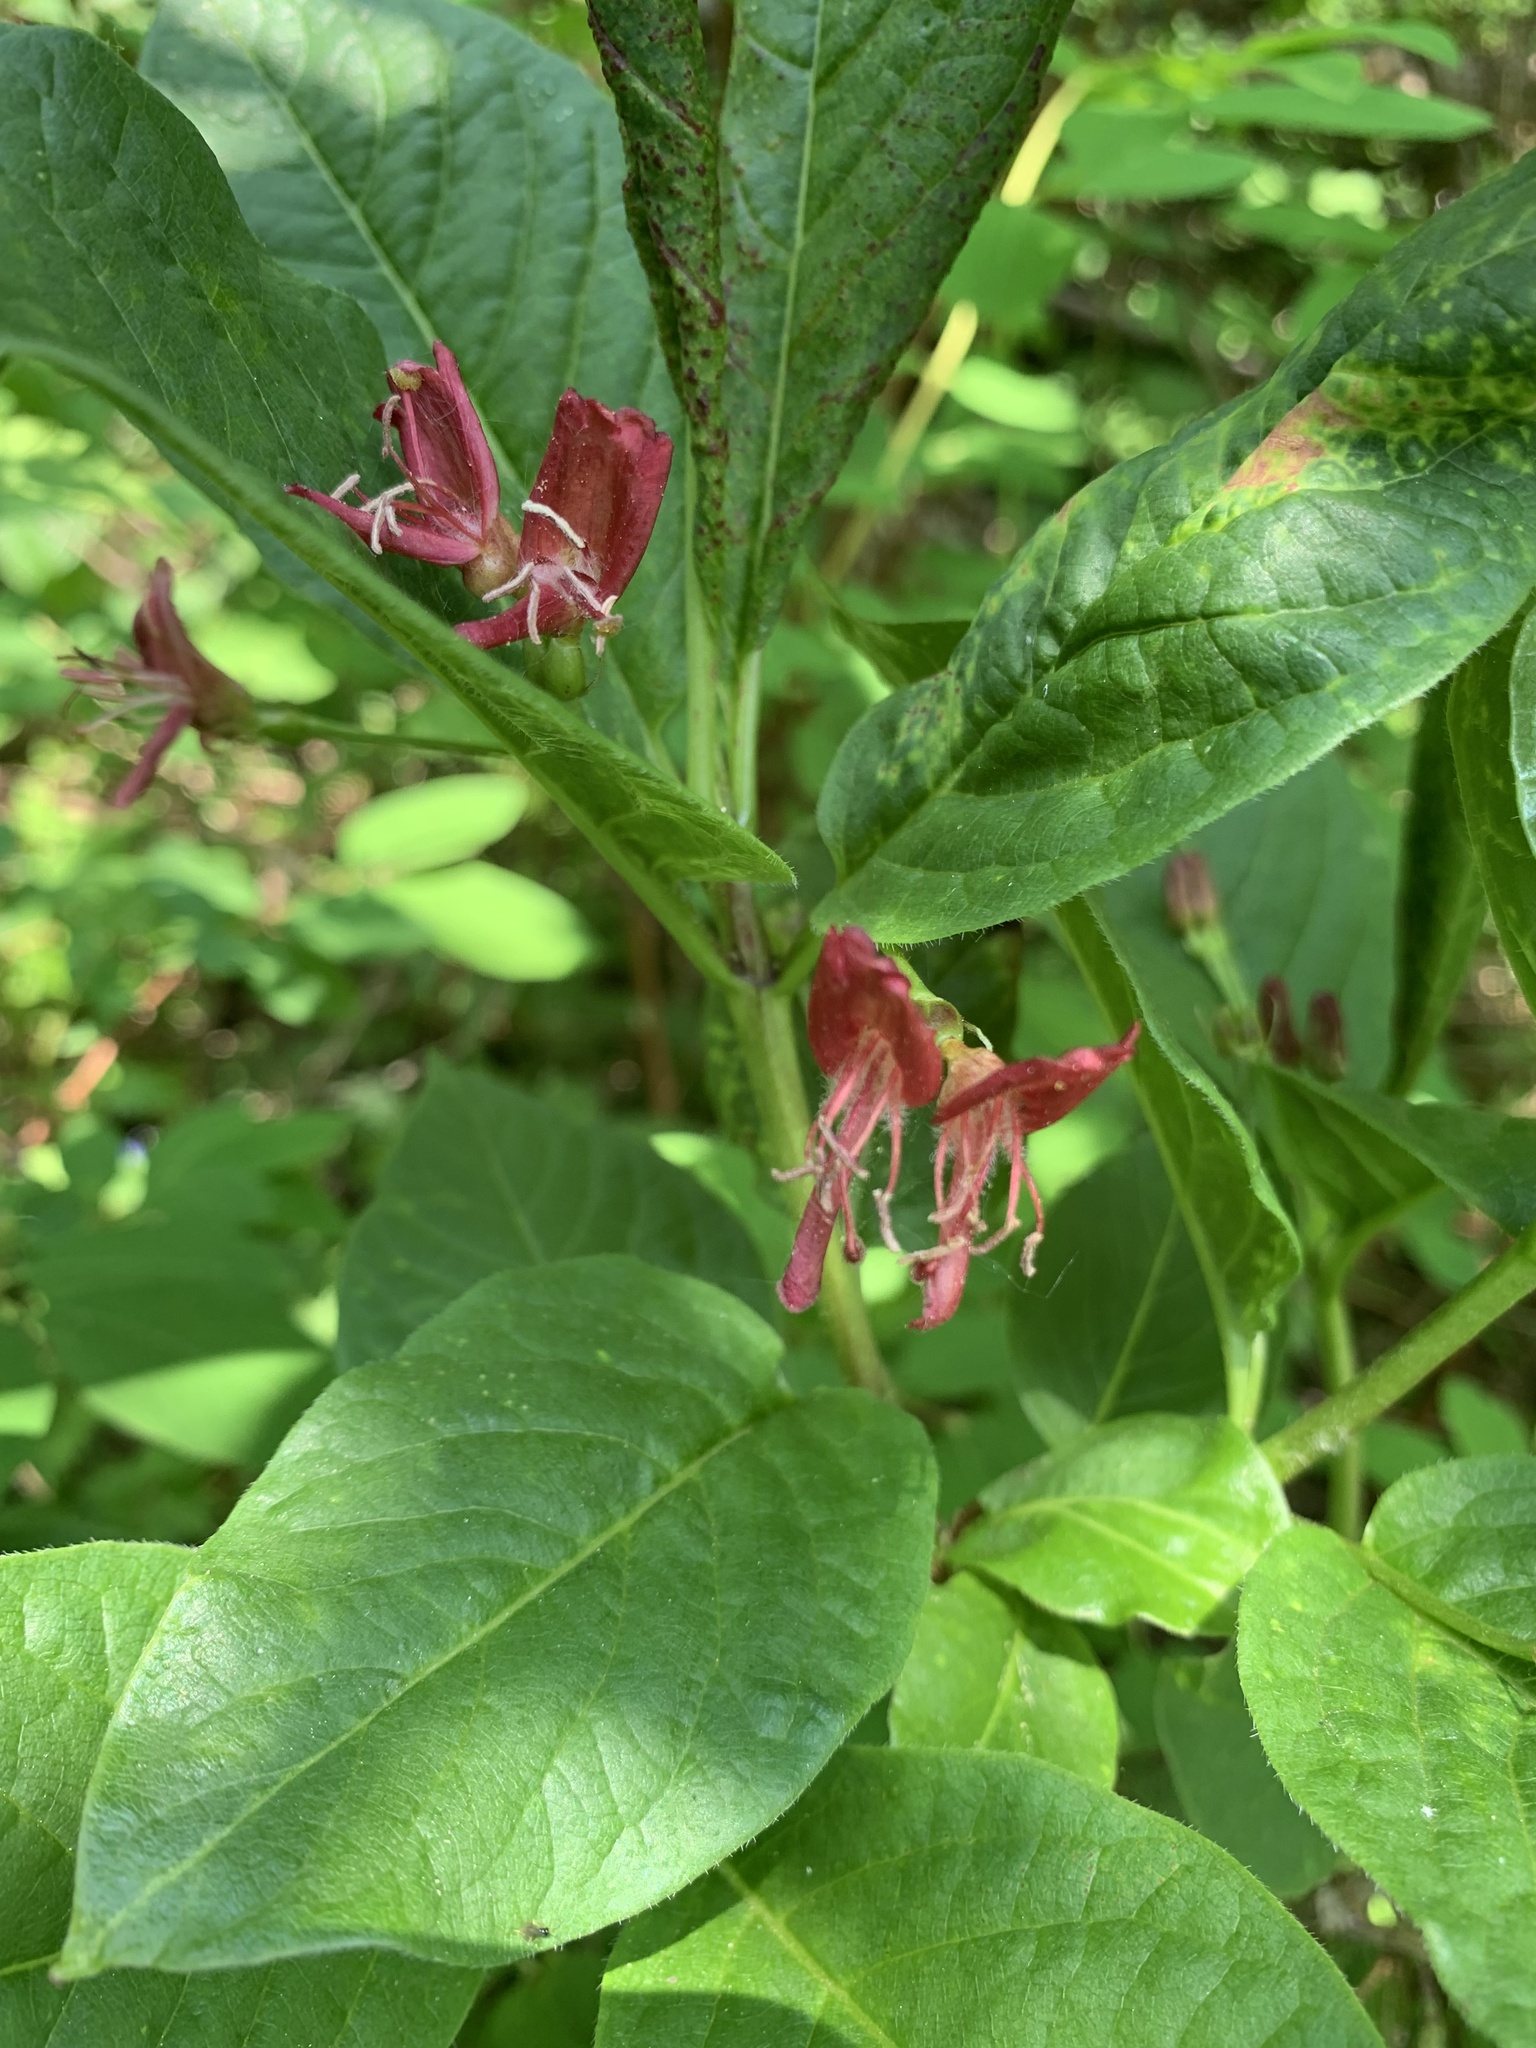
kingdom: Plantae
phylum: Tracheophyta
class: Magnoliopsida
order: Dipsacales
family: Caprifoliaceae
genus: Lonicera
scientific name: Lonicera alpigena
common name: Alpine honeysuckle
